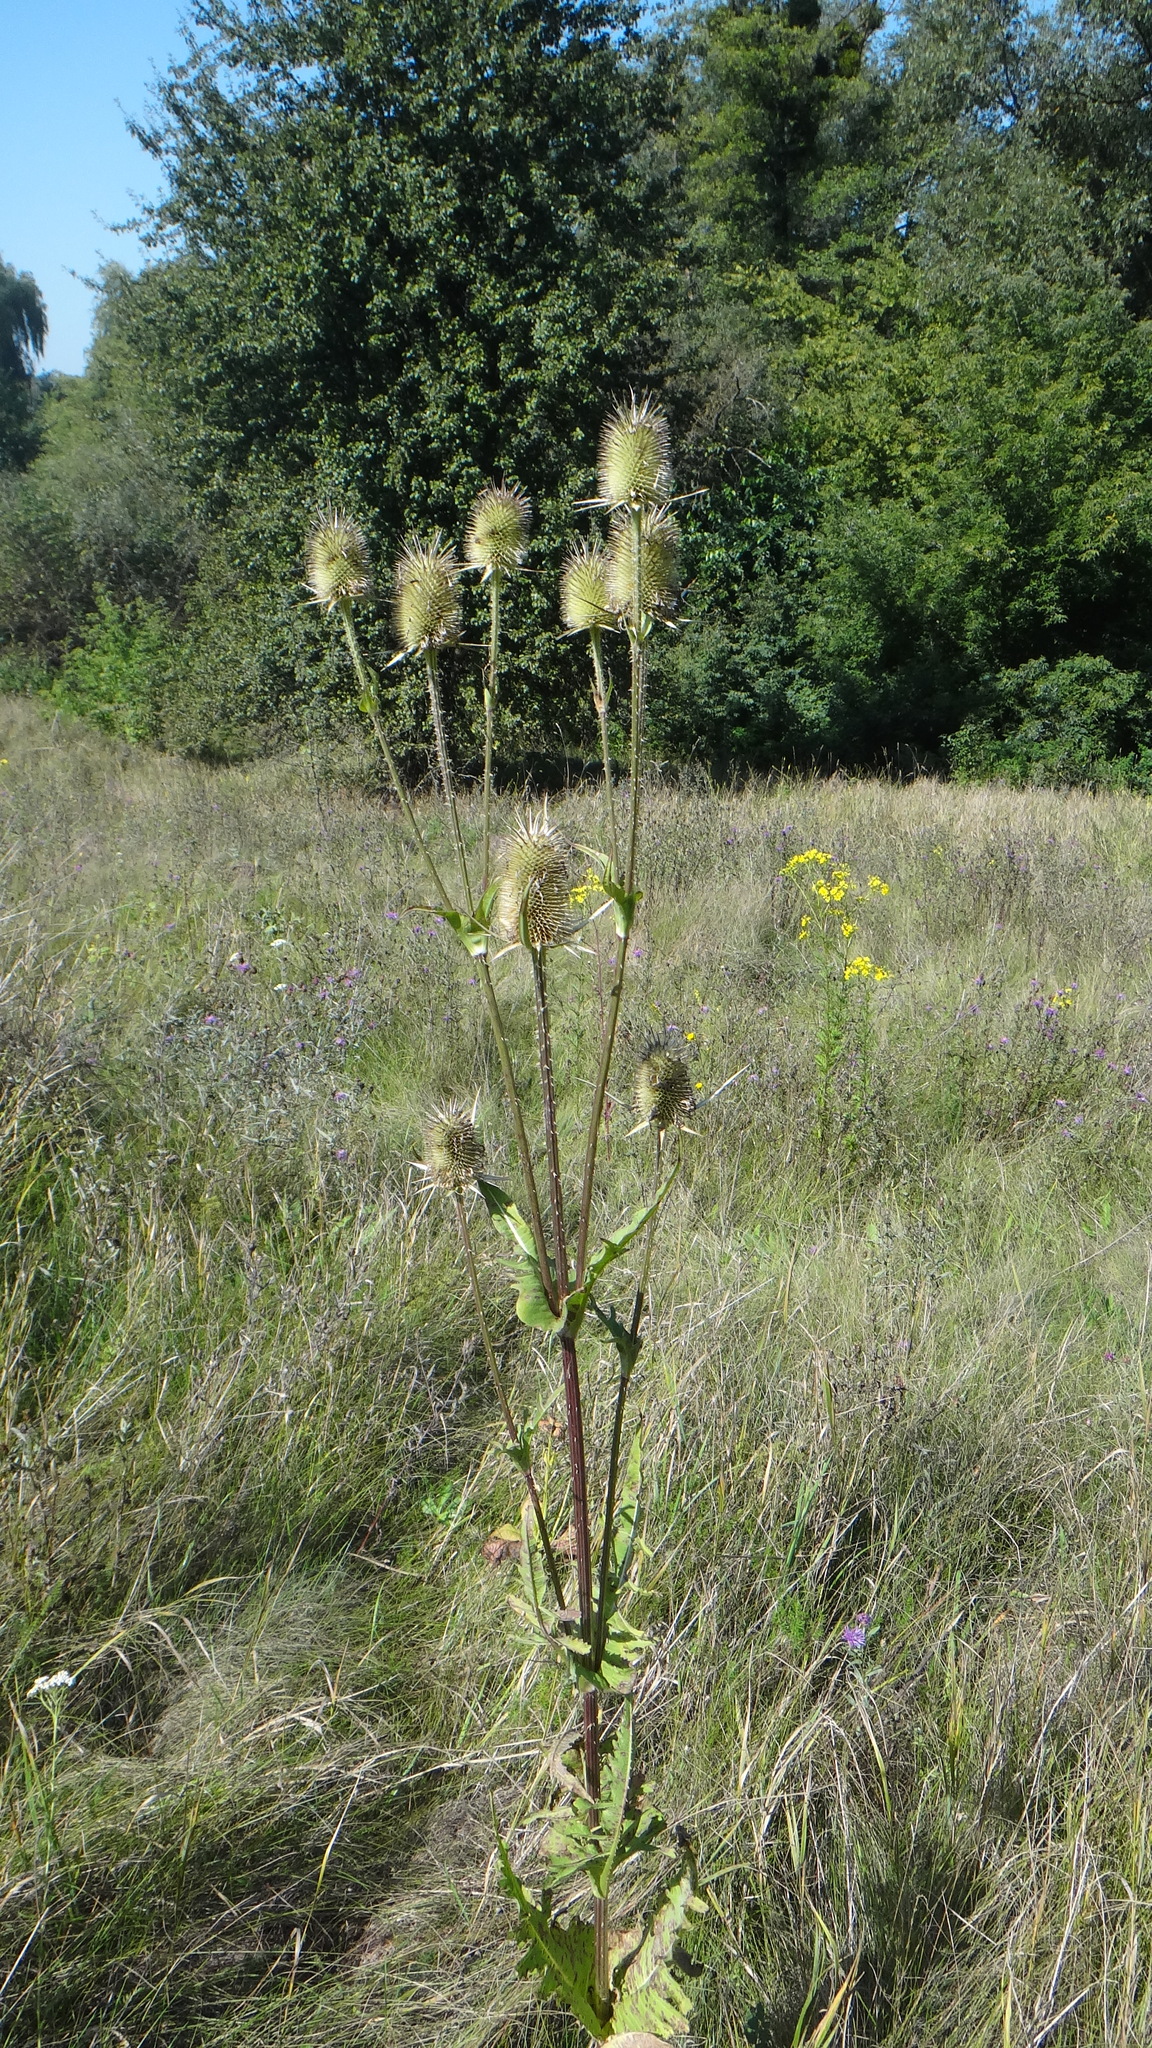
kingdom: Plantae
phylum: Tracheophyta
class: Magnoliopsida
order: Dipsacales
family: Caprifoliaceae
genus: Dipsacus
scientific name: Dipsacus laciniatus
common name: Cut-leaved teasel
